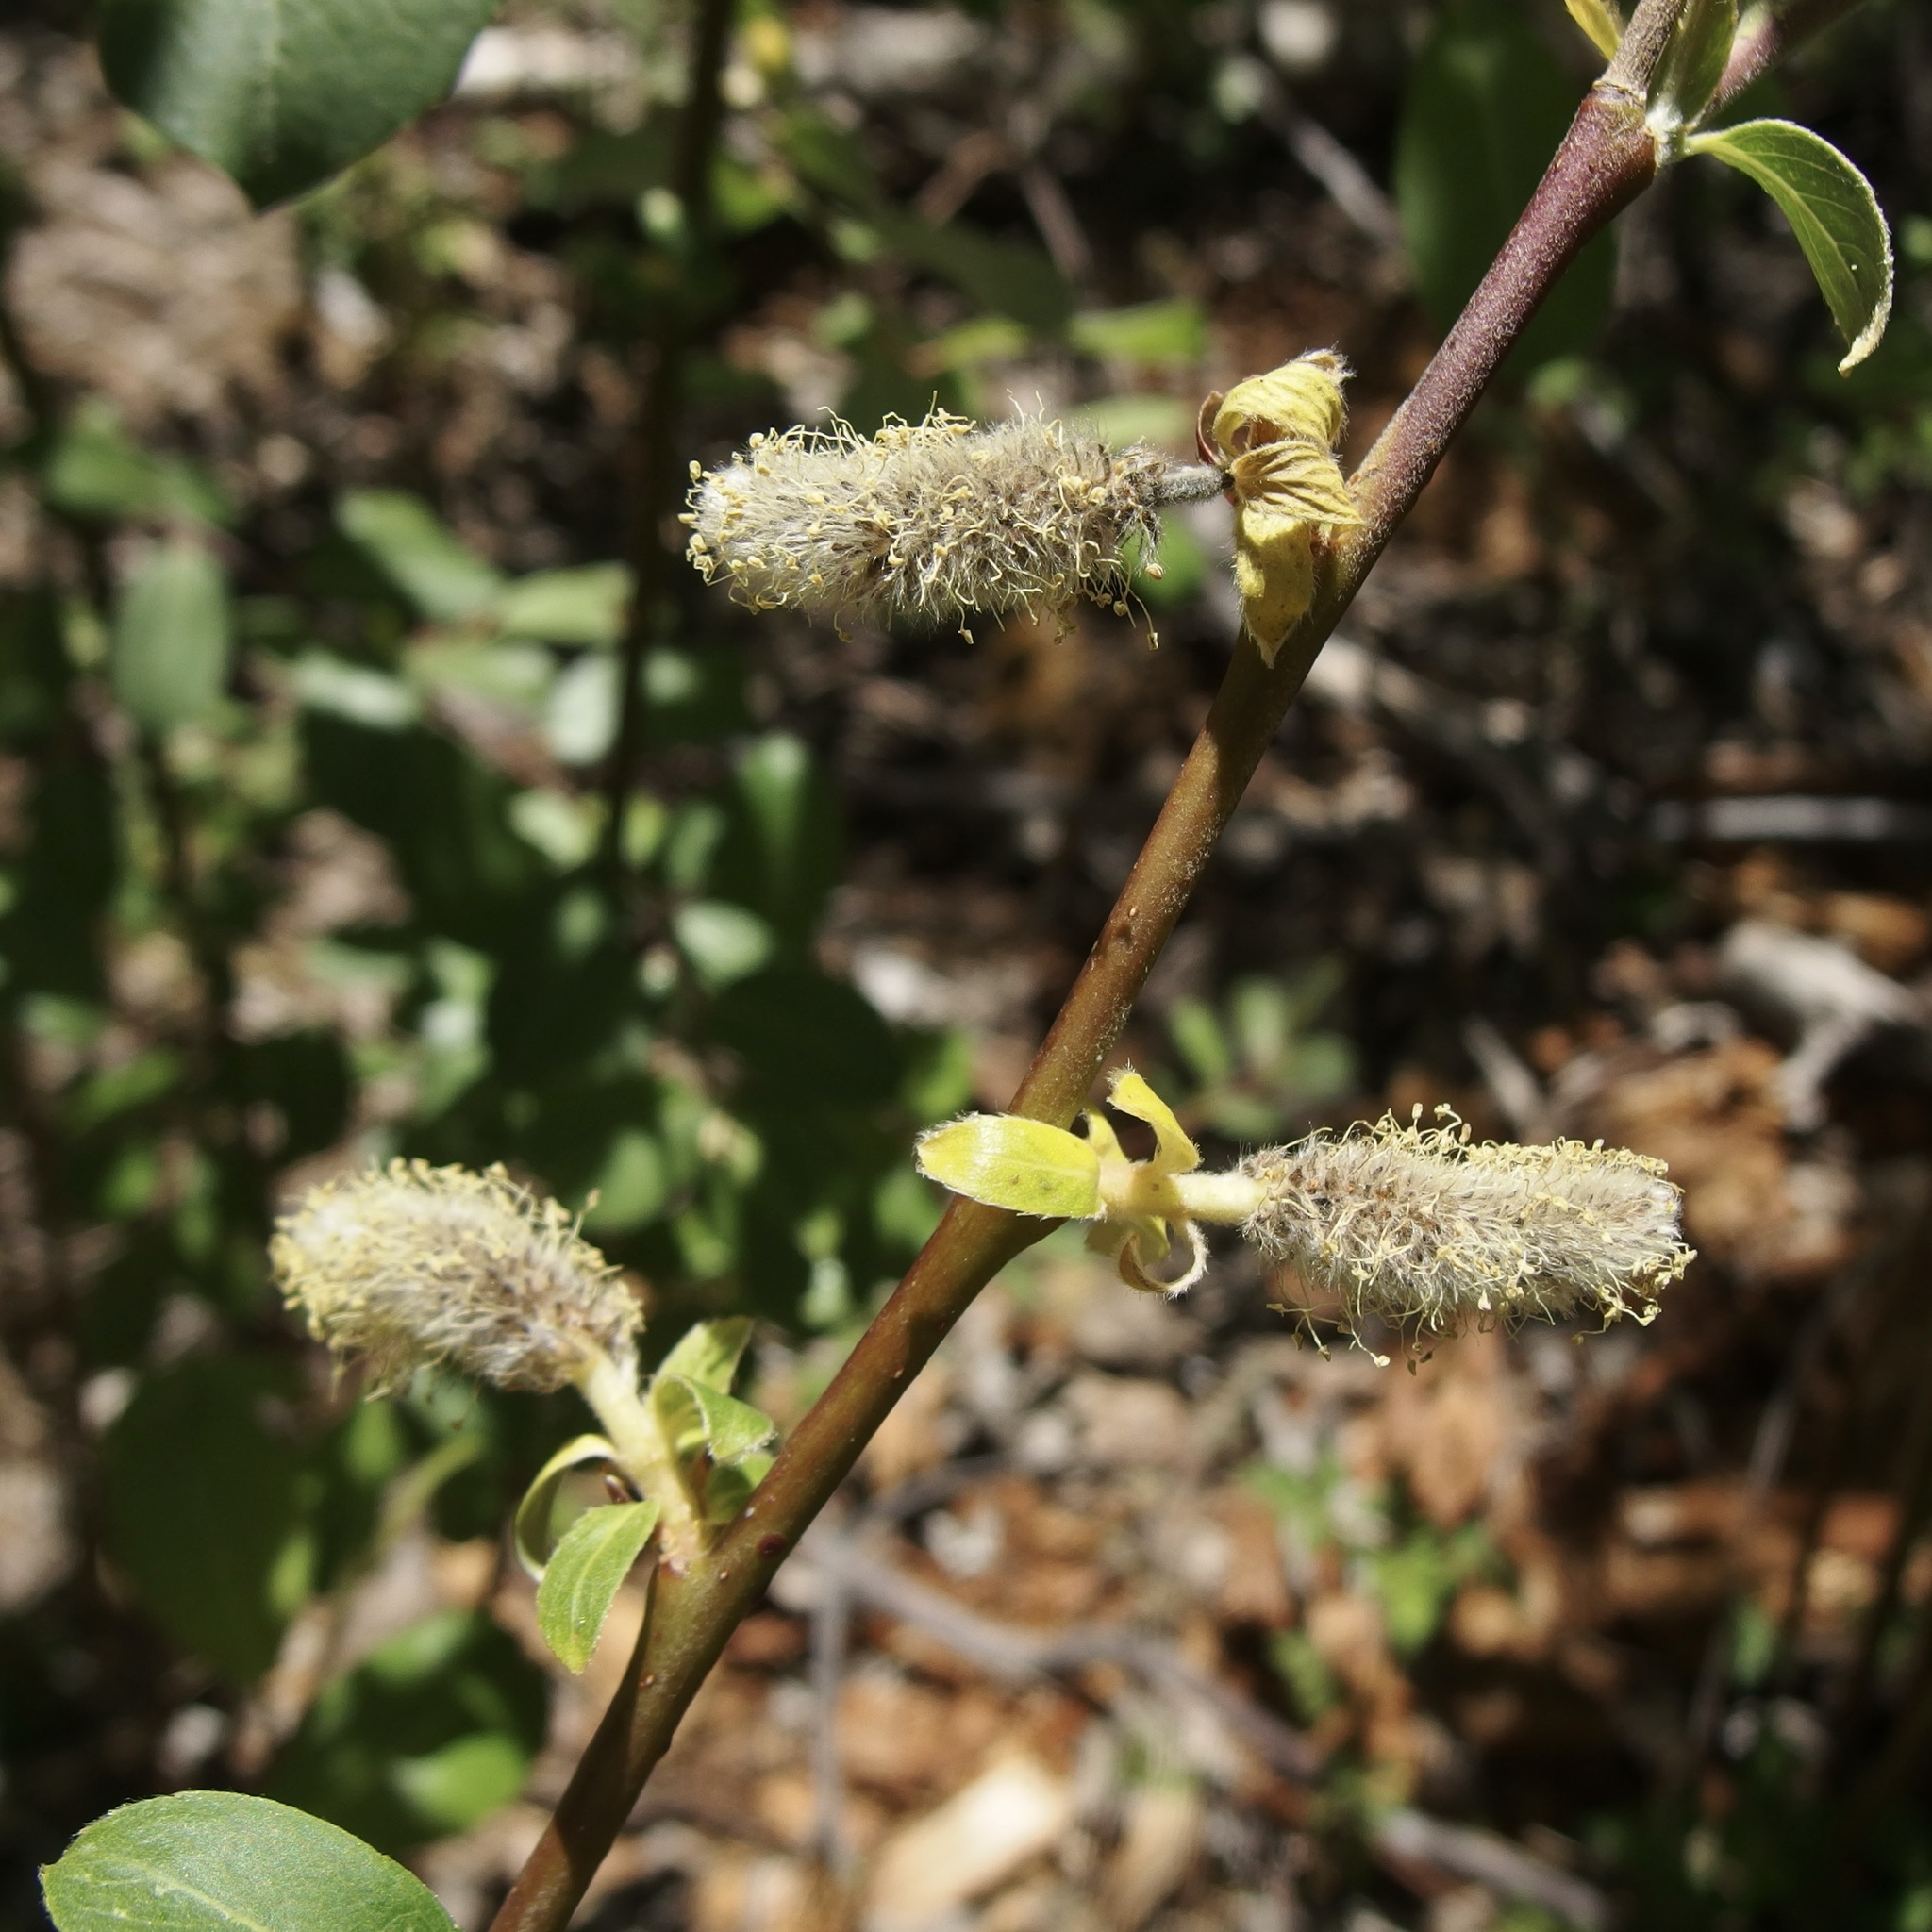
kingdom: Plantae
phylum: Tracheophyta
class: Magnoliopsida
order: Malpighiales
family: Salicaceae
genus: Salix
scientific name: Salix scouleriana
